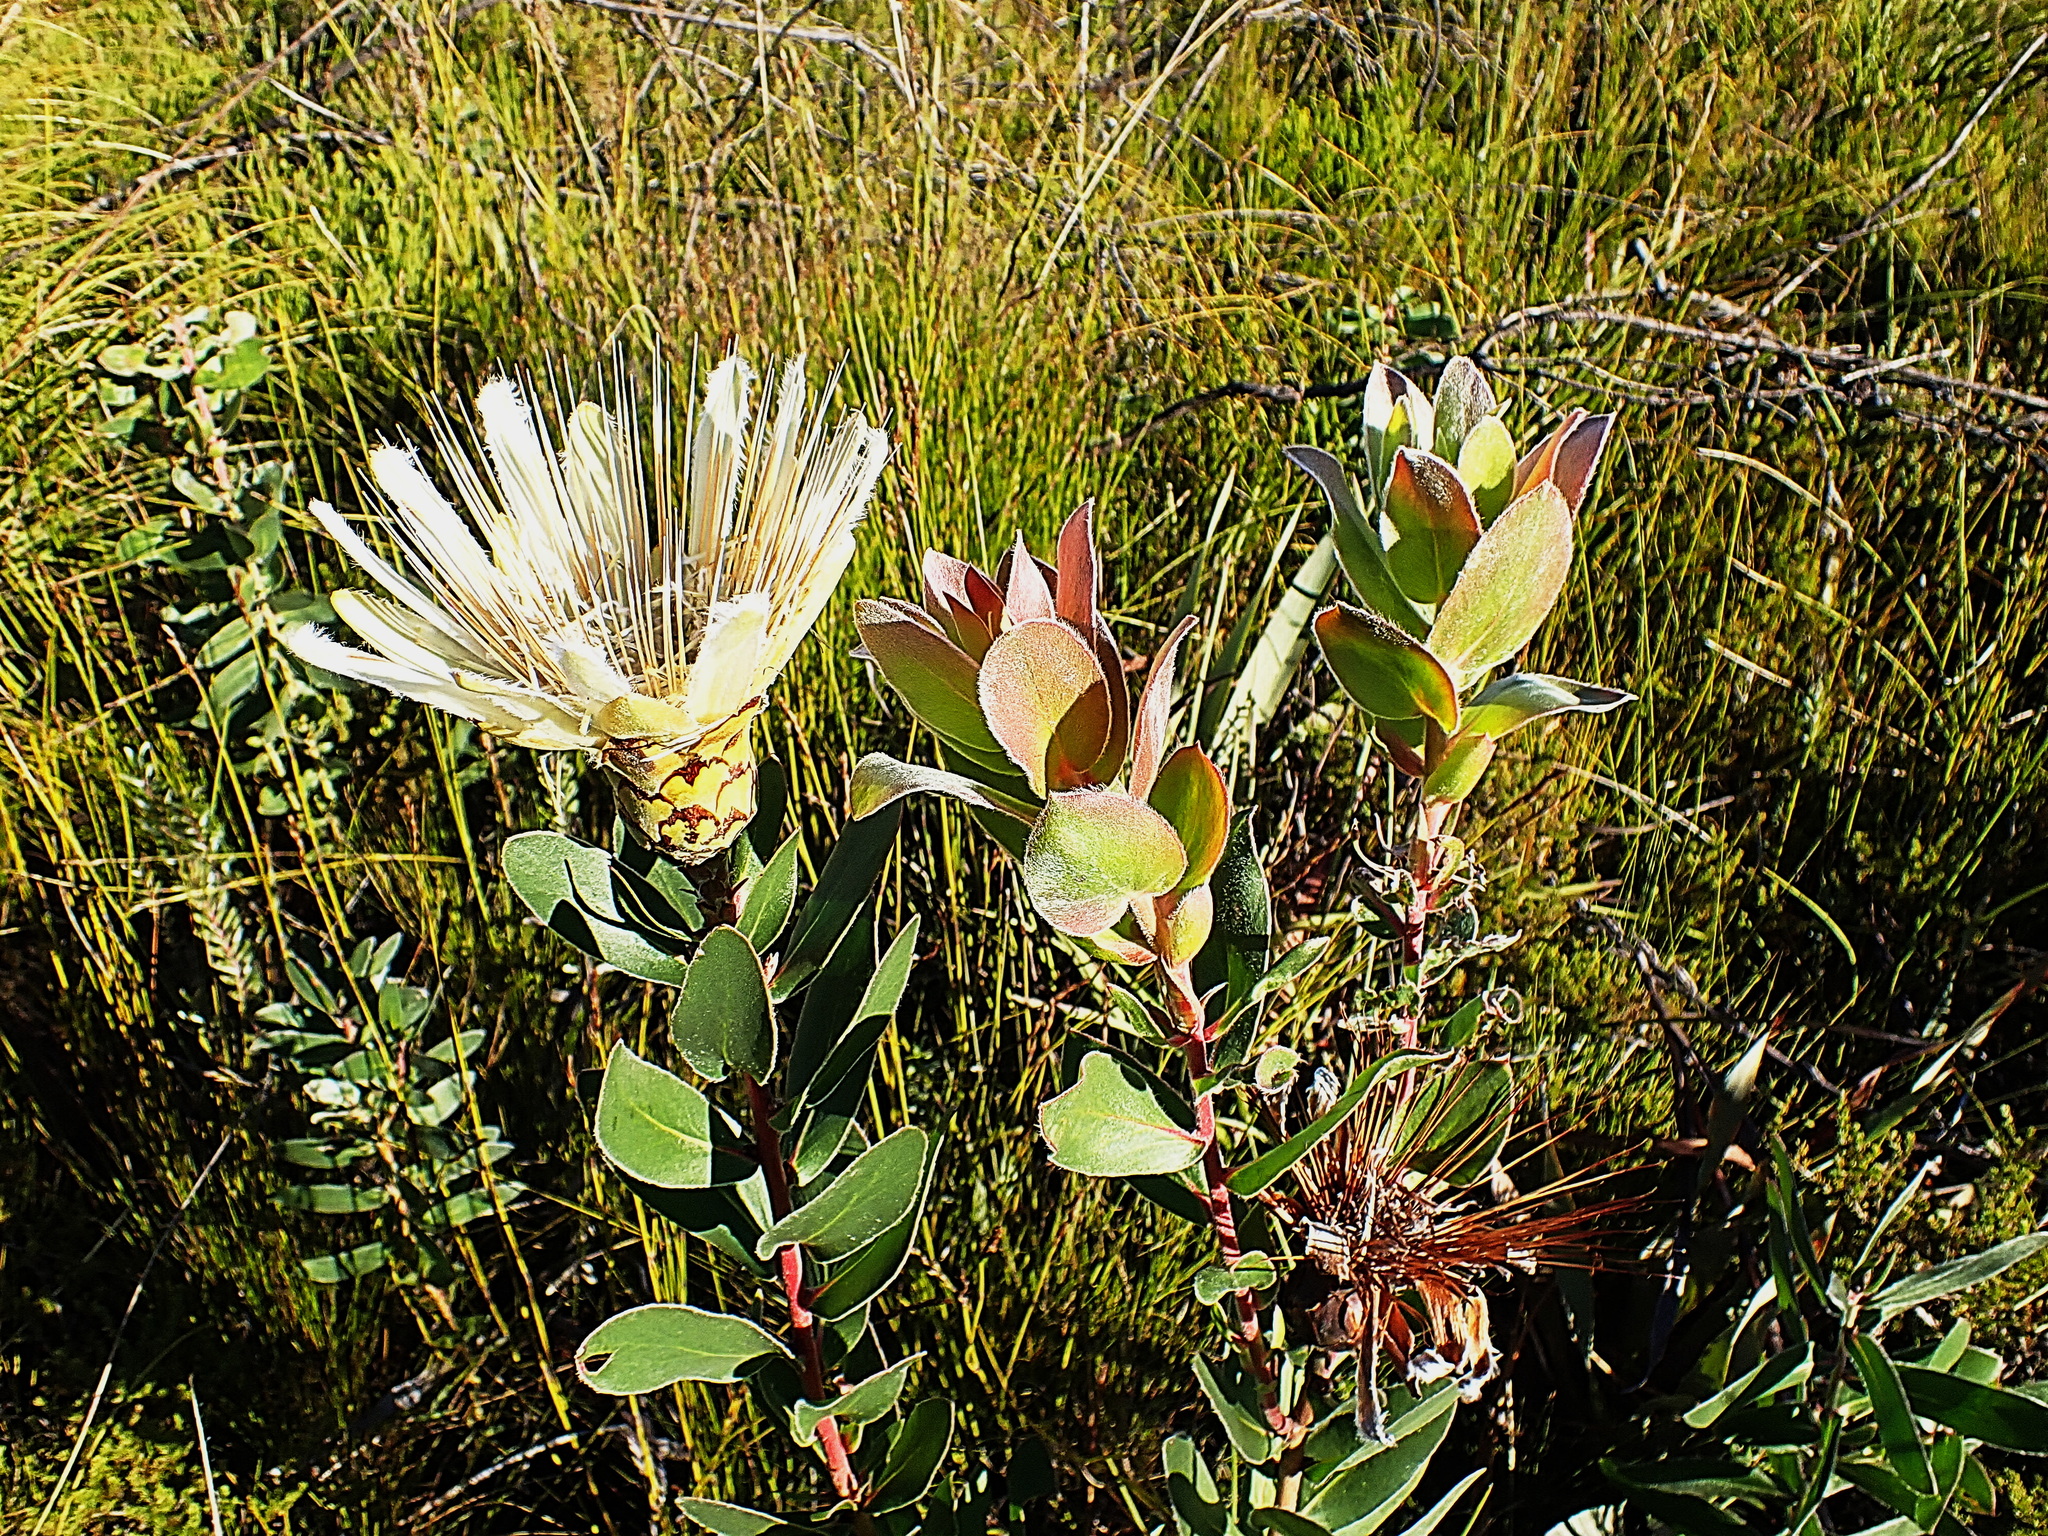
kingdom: Plantae
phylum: Tracheophyta
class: Magnoliopsida
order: Proteales
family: Proteaceae
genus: Protea
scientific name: Protea aurea
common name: Shuttlecock sugarbush
